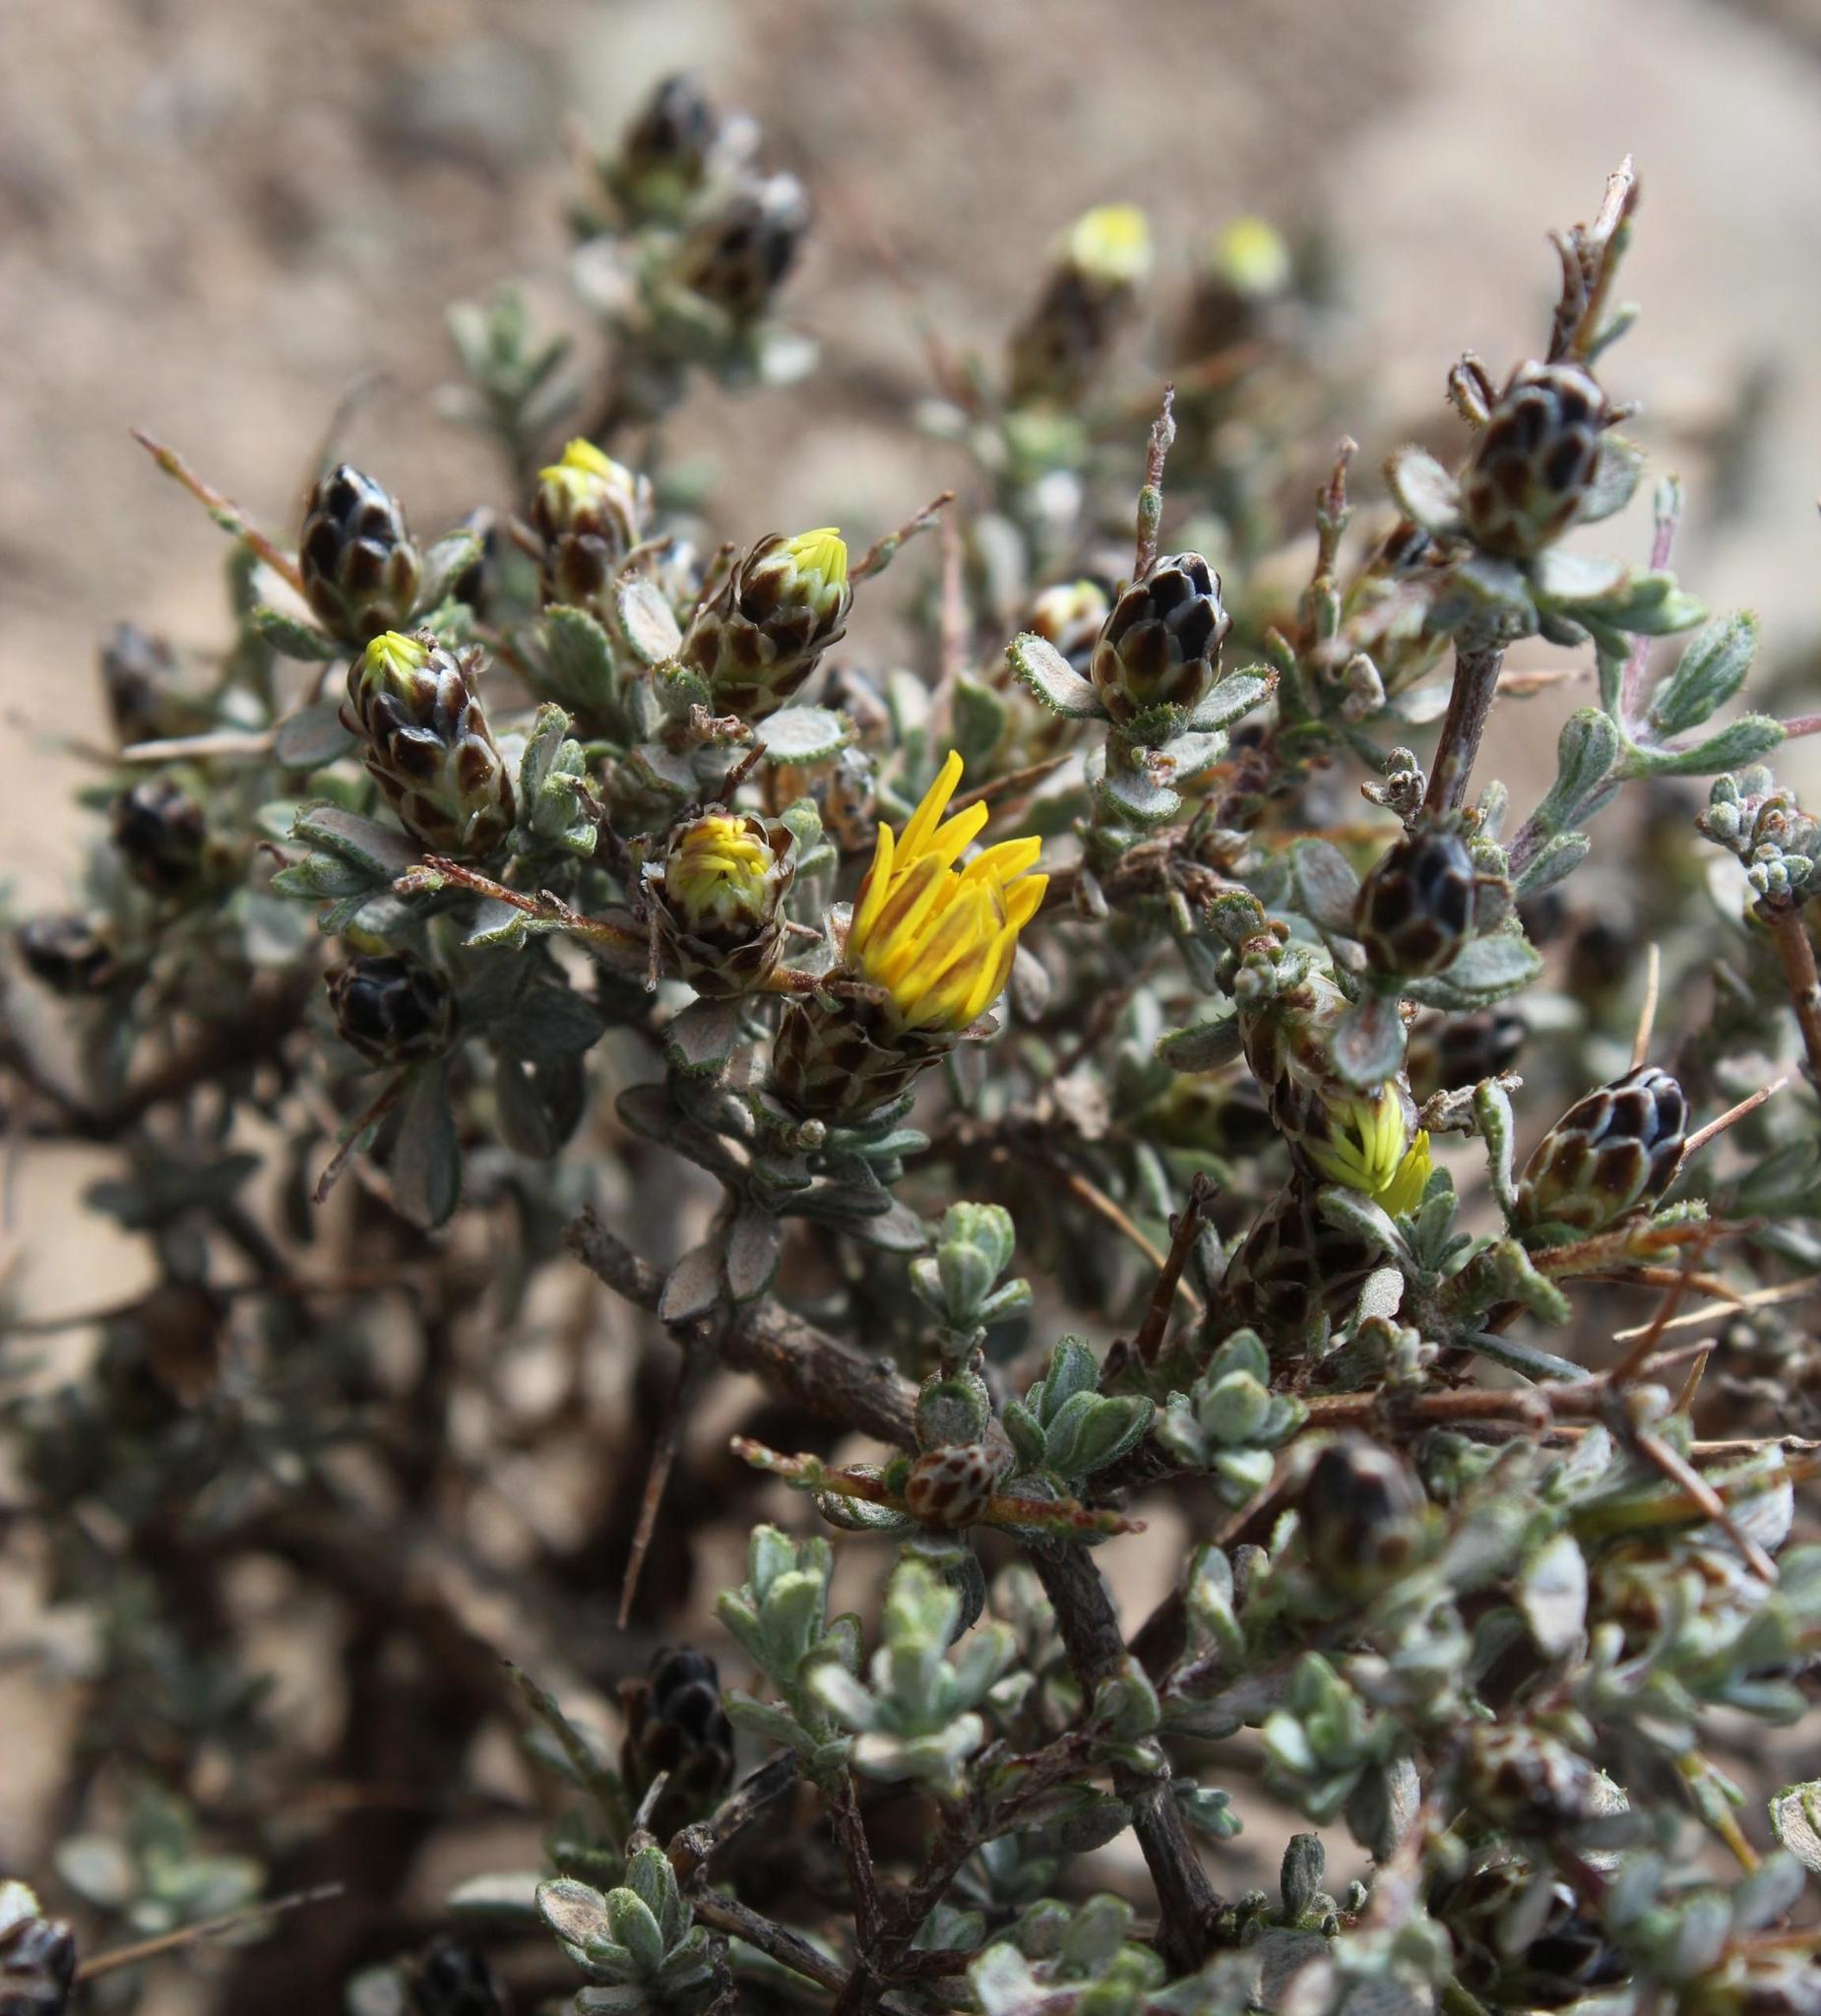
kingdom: Plantae
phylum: Tracheophyta
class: Magnoliopsida
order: Asterales
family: Asteraceae
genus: Oedera
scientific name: Oedera spinescens
